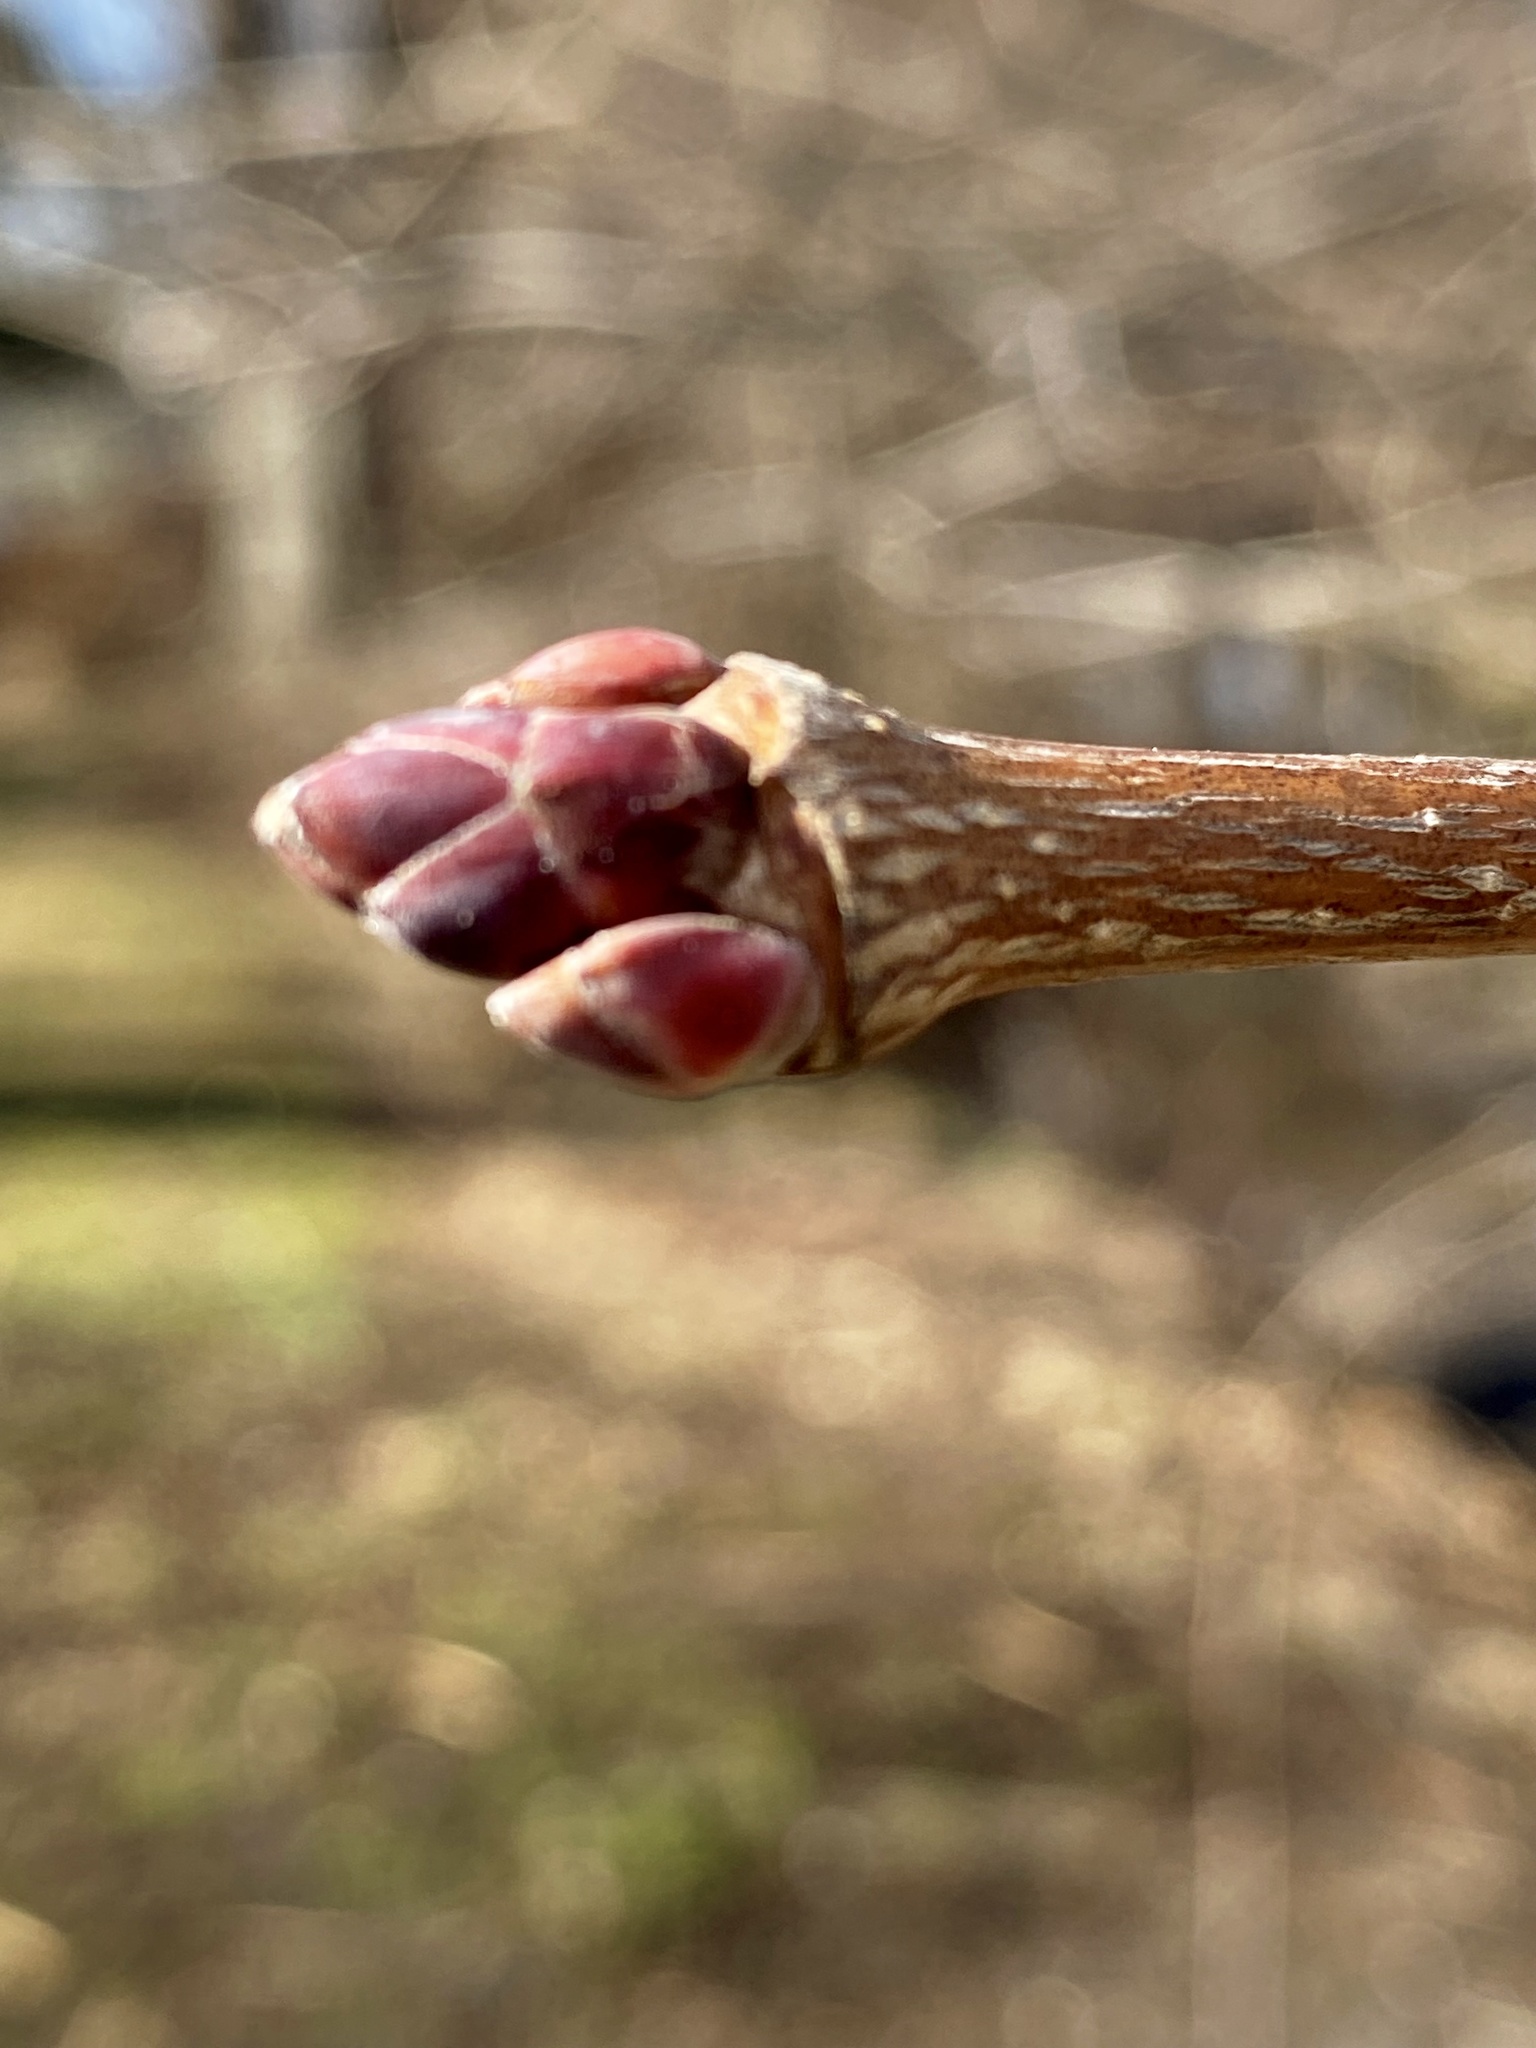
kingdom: Plantae
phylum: Tracheophyta
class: Magnoliopsida
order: Sapindales
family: Sapindaceae
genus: Acer
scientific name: Acer platanoides
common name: Norway maple
